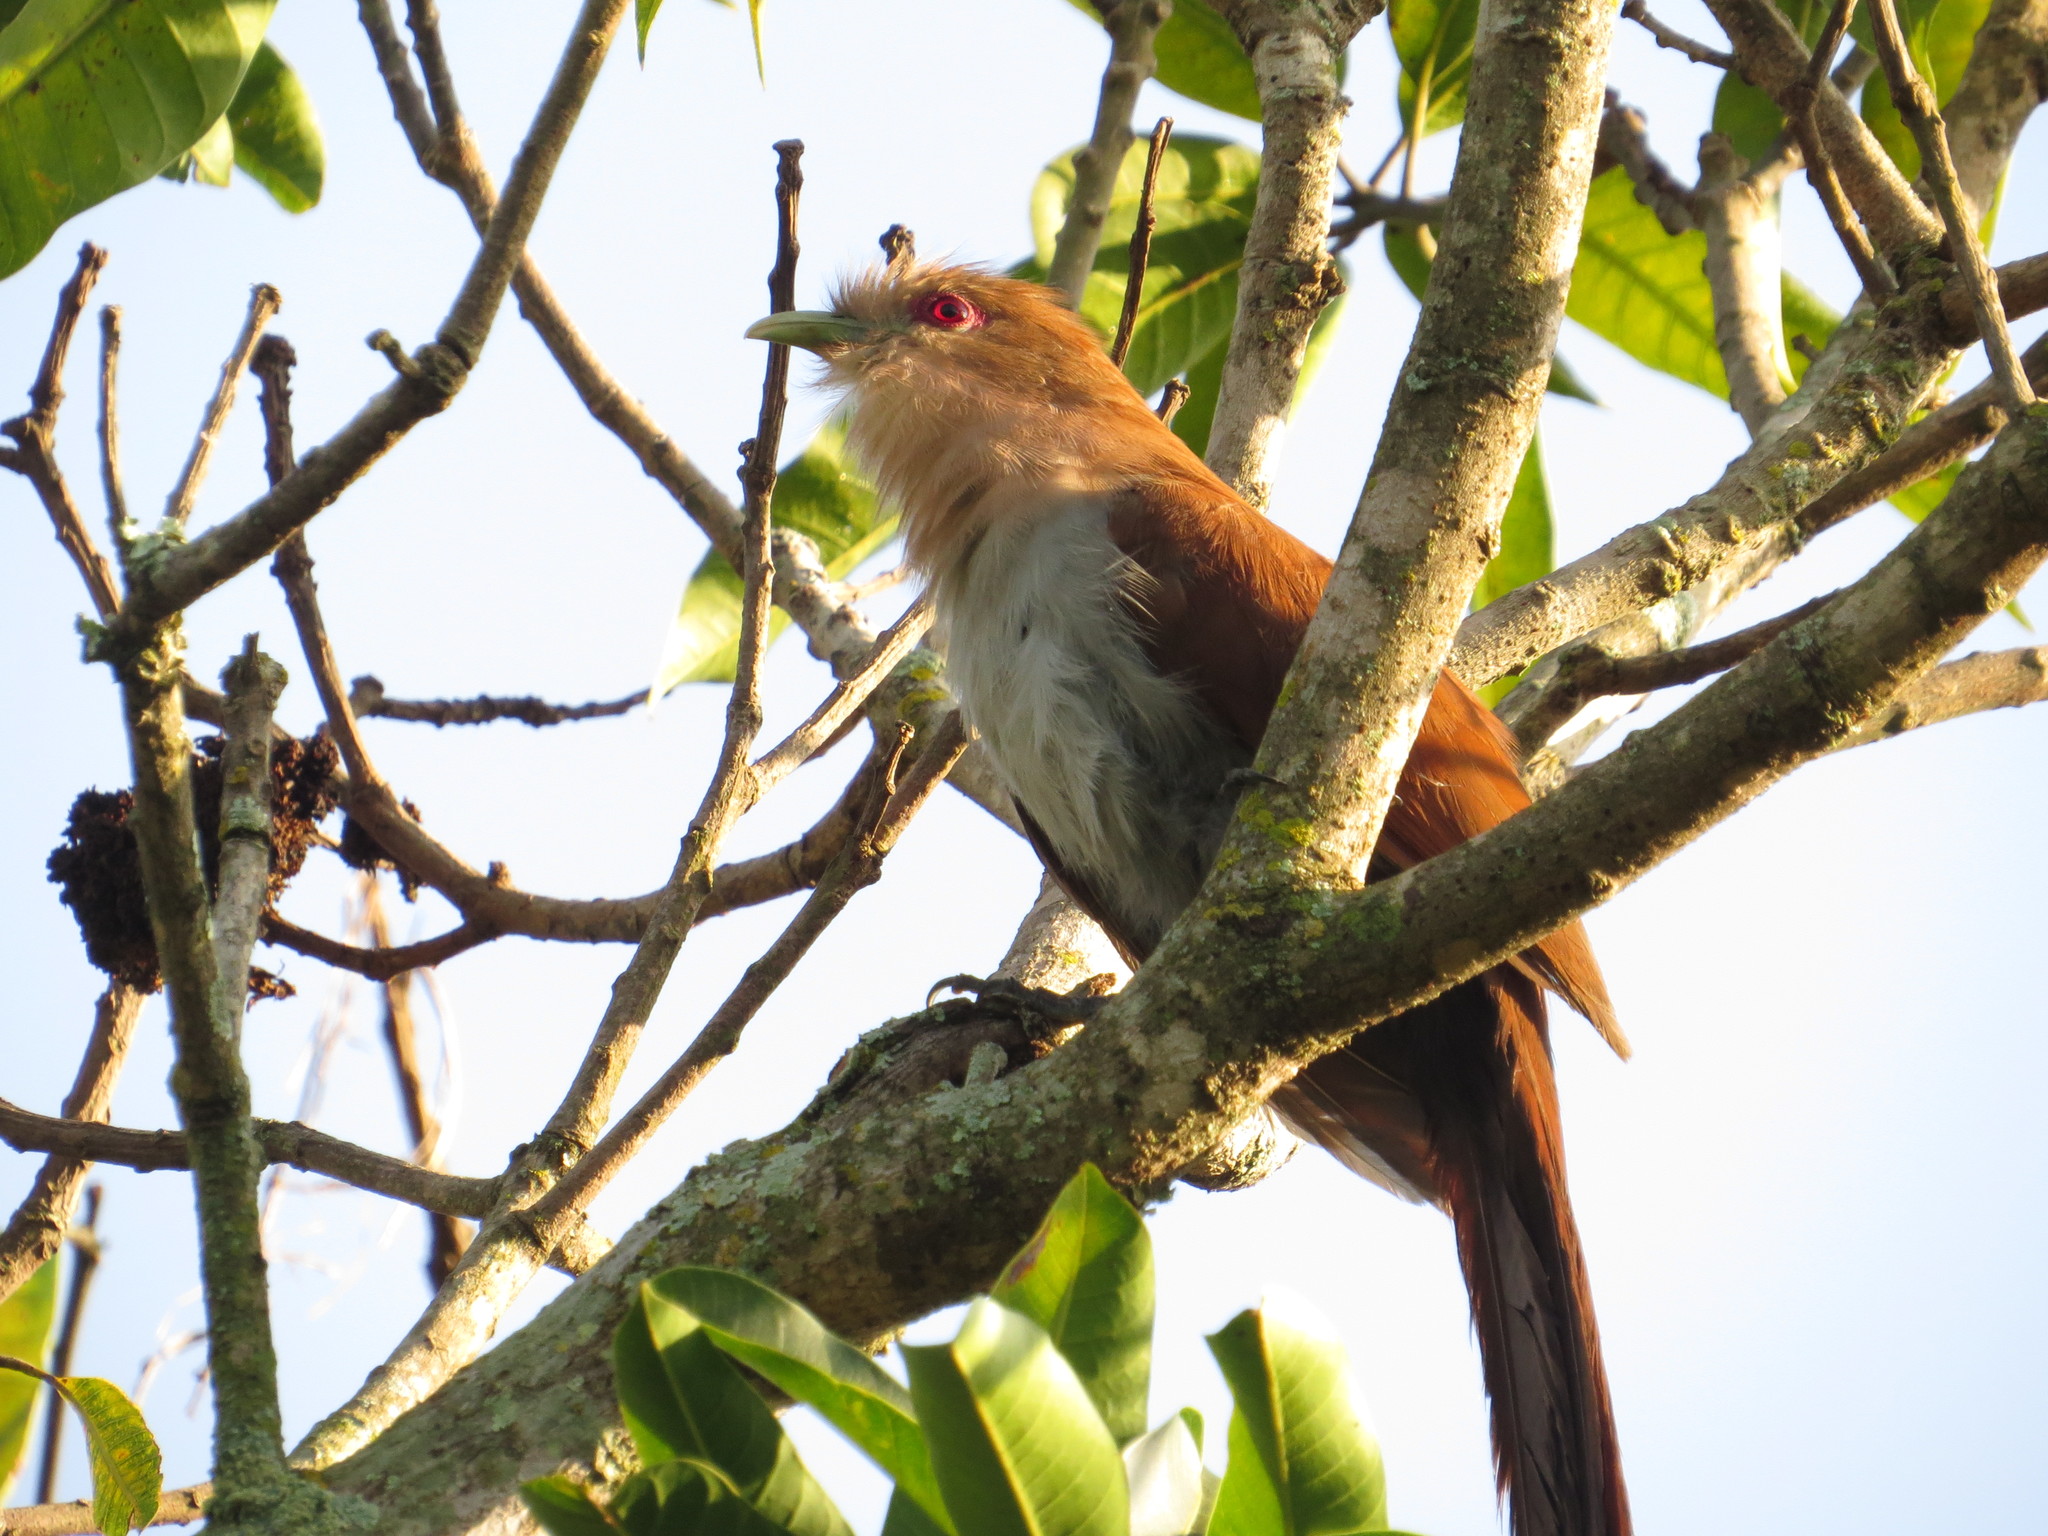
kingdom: Animalia
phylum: Chordata
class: Aves
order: Cuculiformes
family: Cuculidae
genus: Piaya
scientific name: Piaya cayana
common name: Squirrel cuckoo
